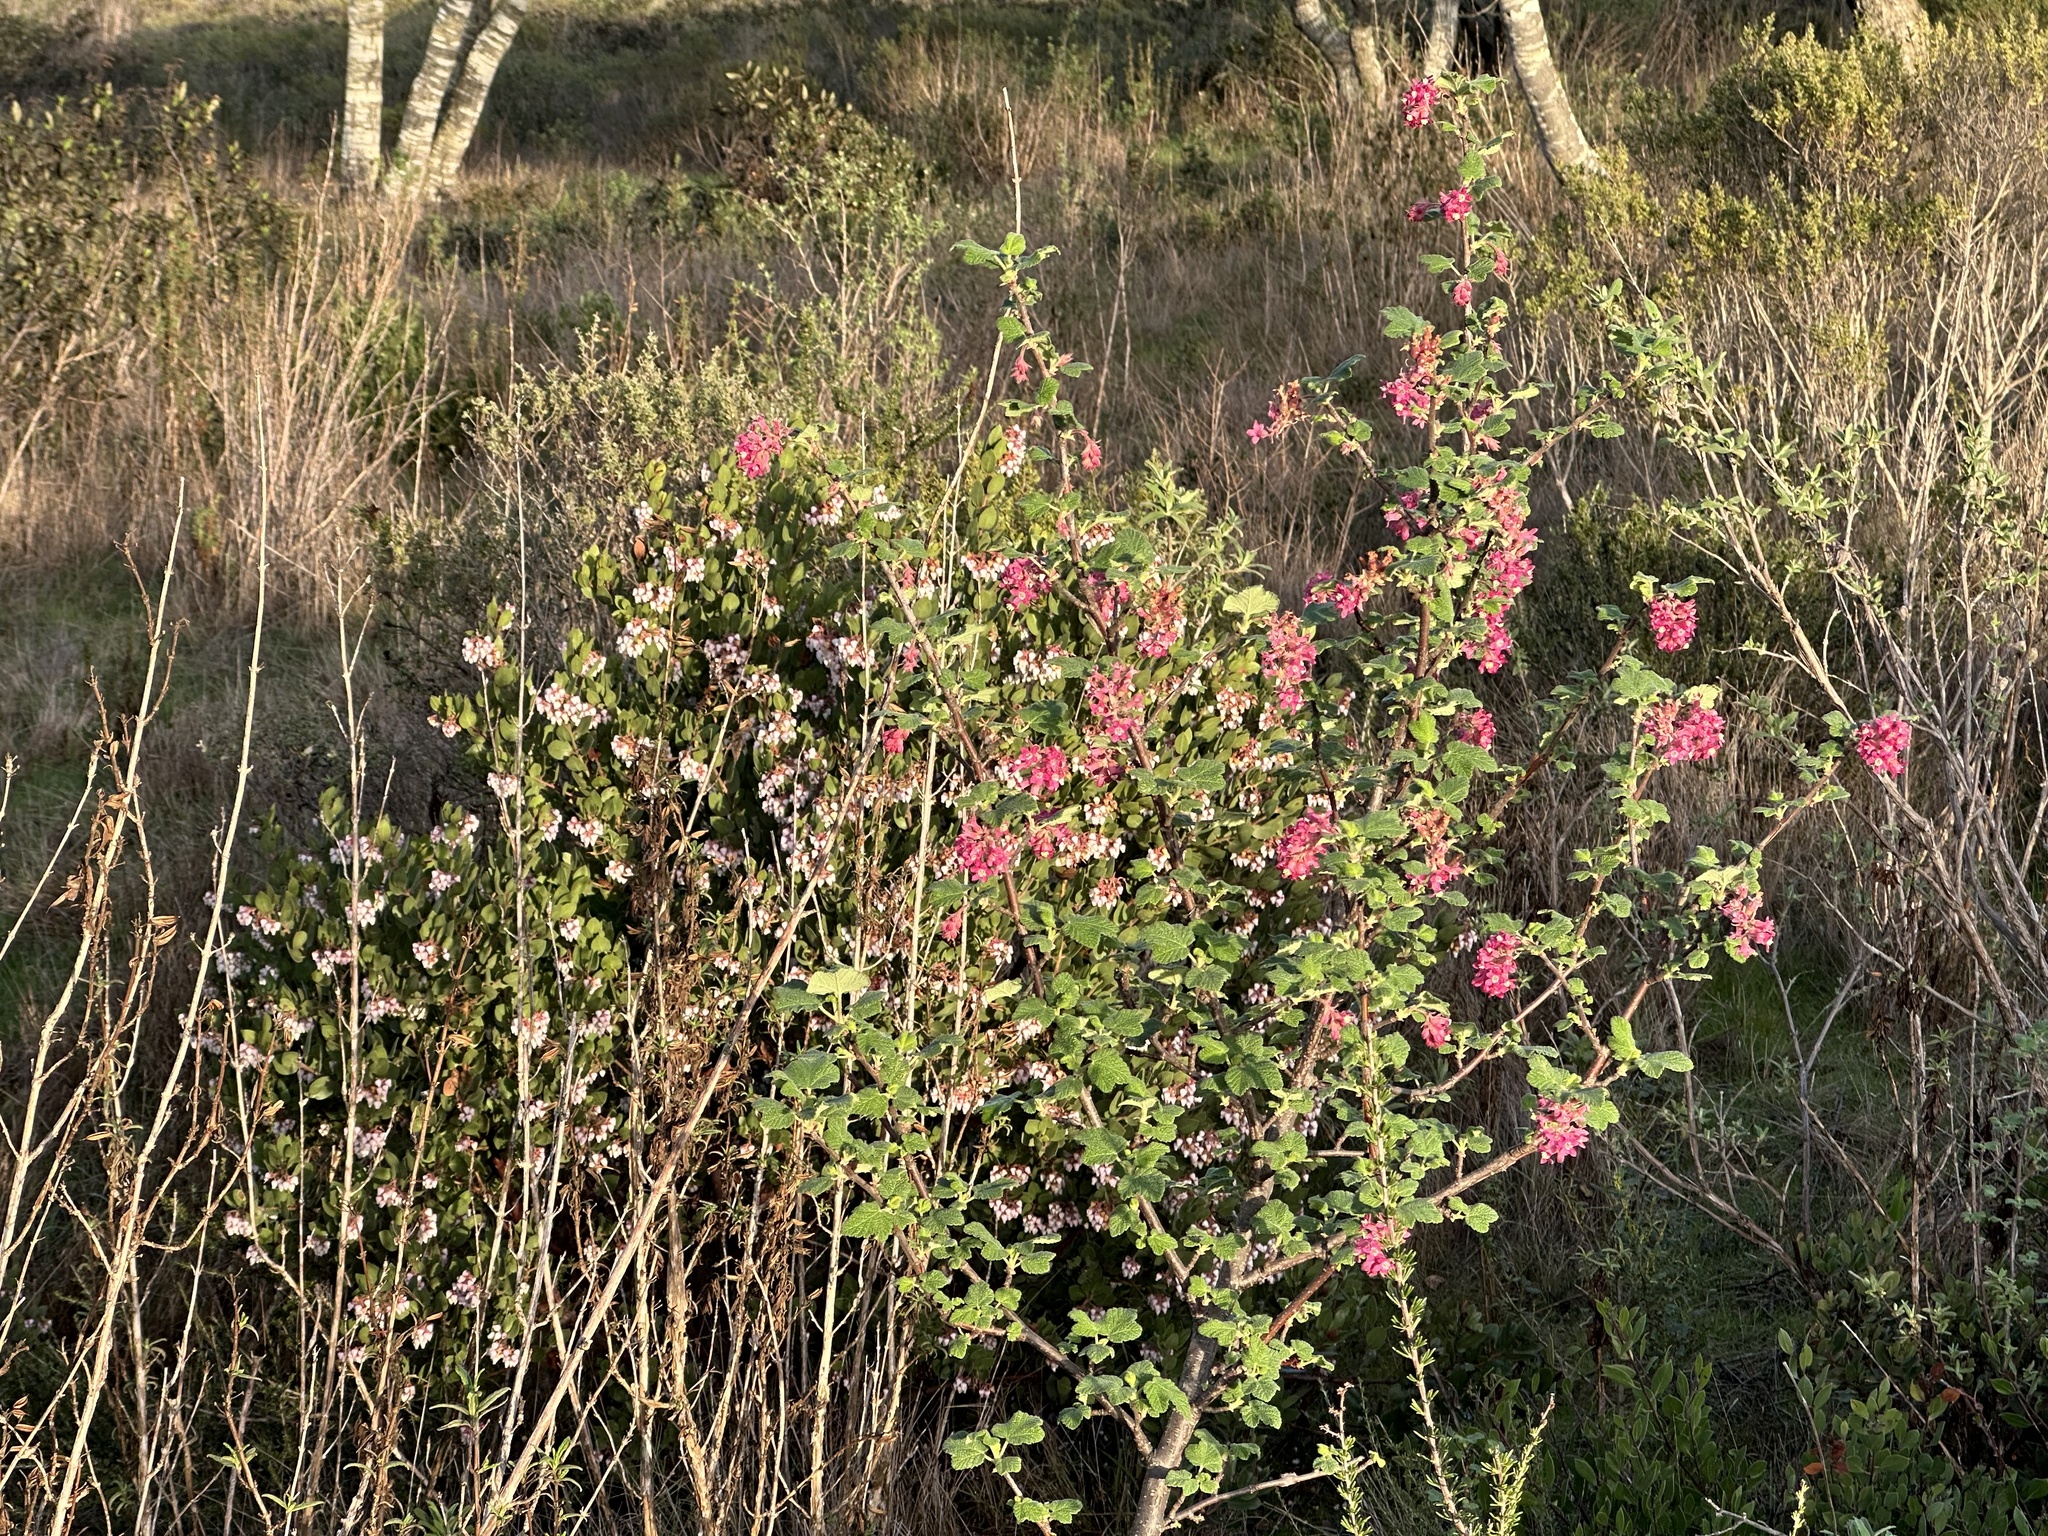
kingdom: Plantae
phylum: Tracheophyta
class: Magnoliopsida
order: Saxifragales
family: Grossulariaceae
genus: Ribes
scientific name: Ribes malvaceum
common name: Chaparral currant
